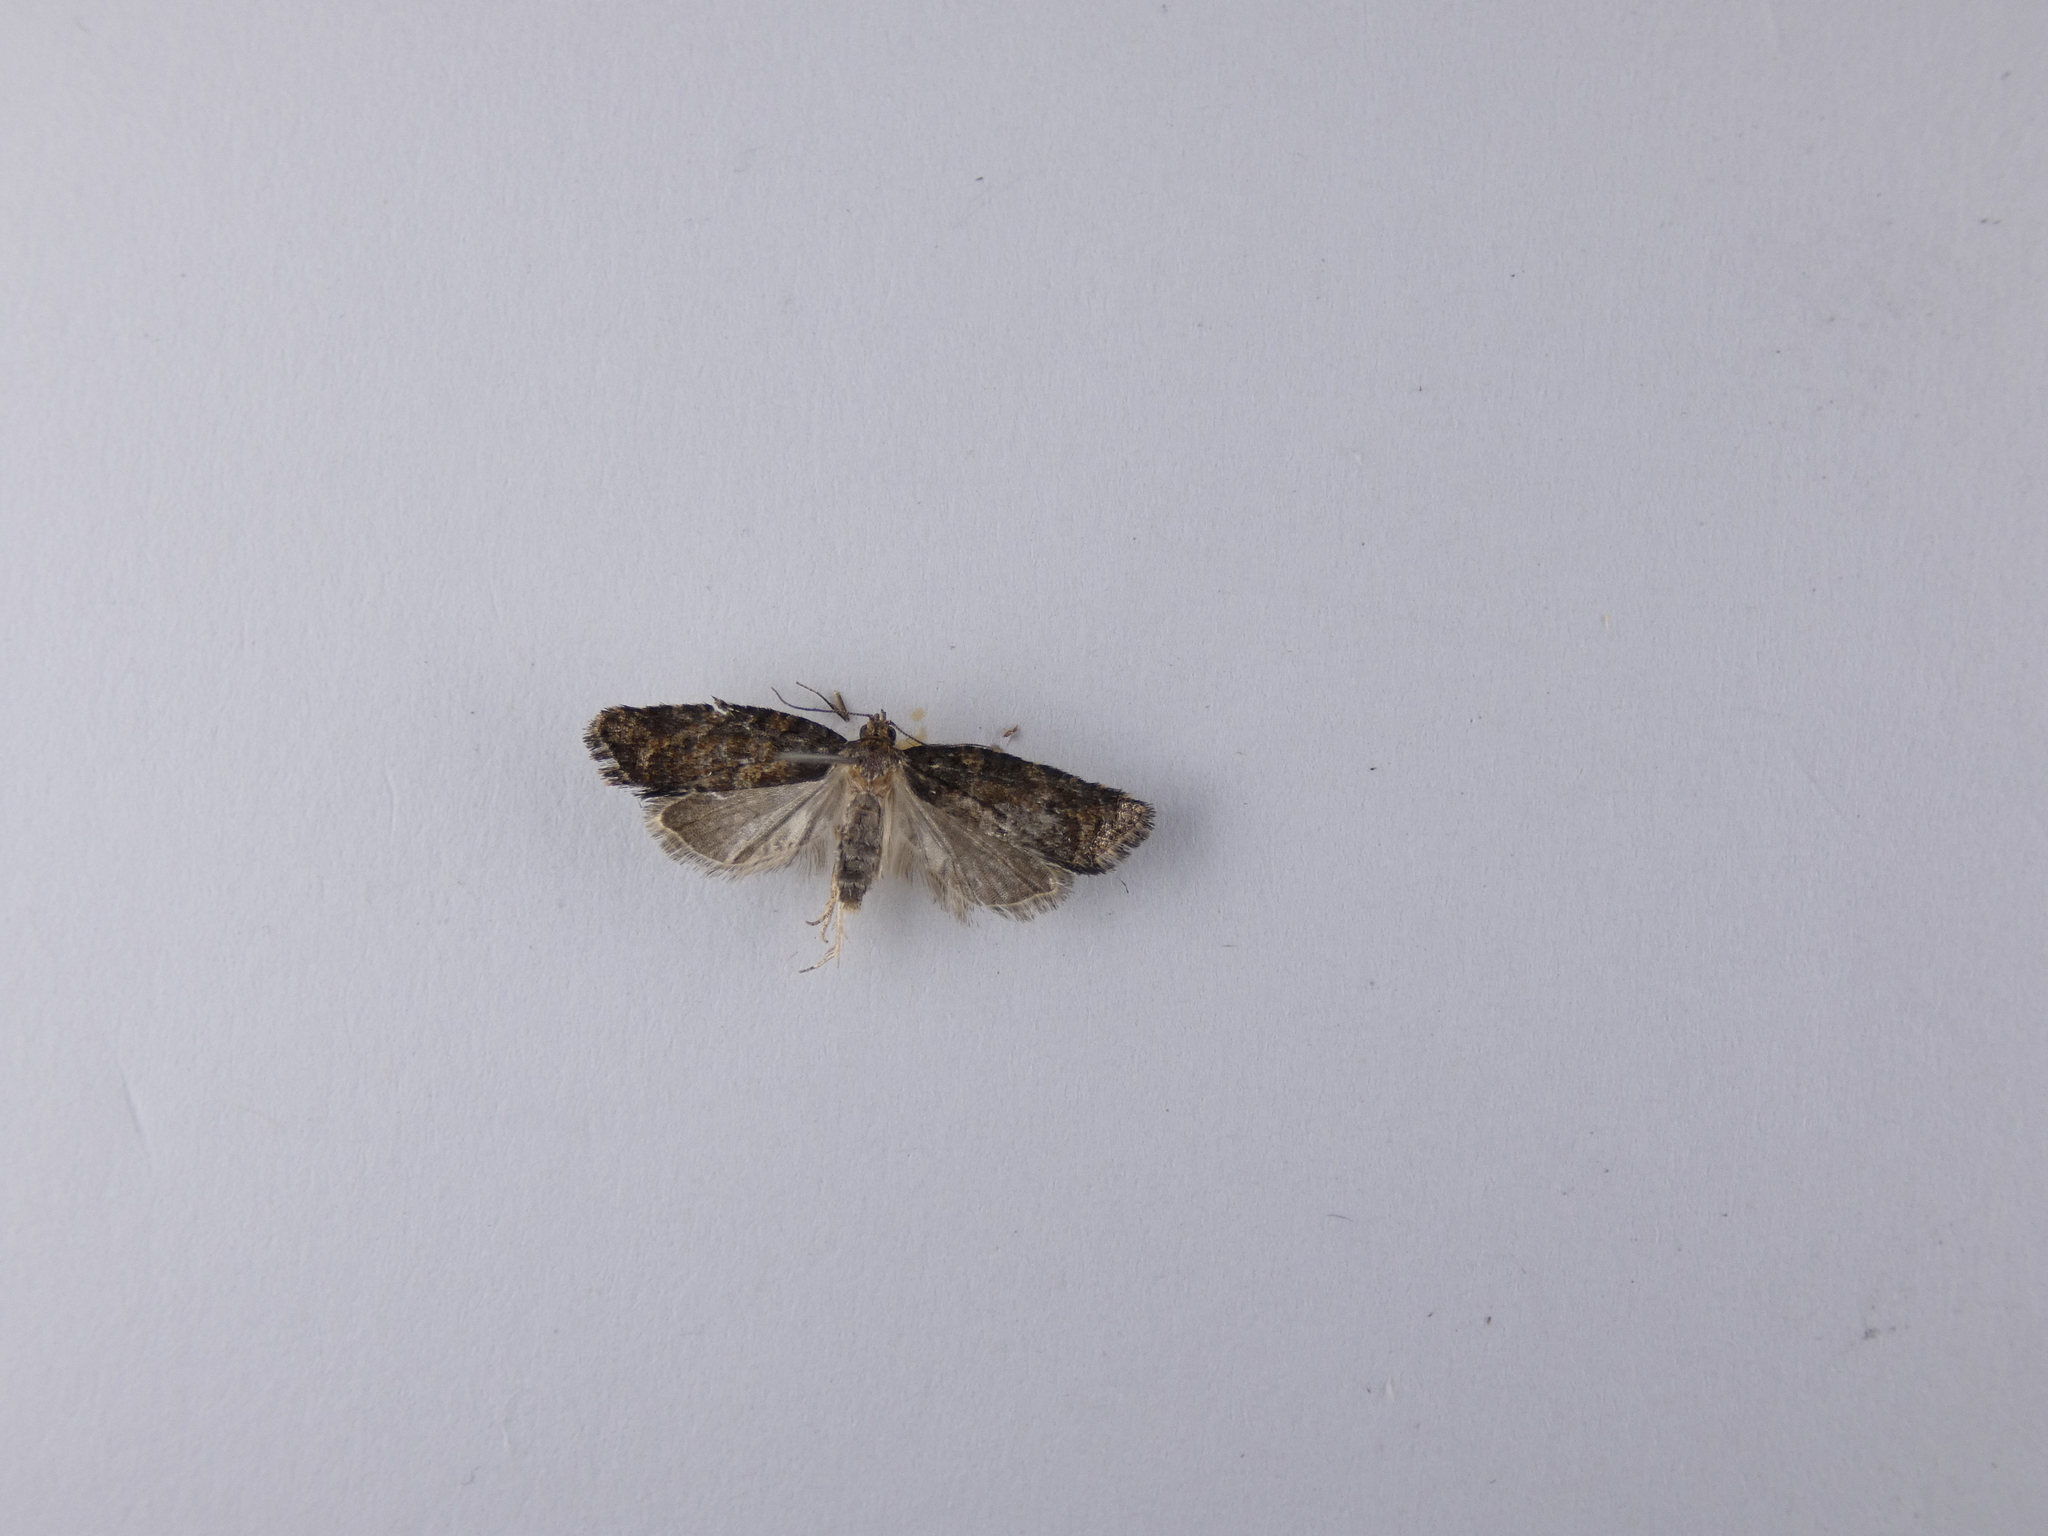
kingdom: Animalia
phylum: Arthropoda
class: Insecta
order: Lepidoptera
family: Tortricidae
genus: Capua
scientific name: Capua intractana
